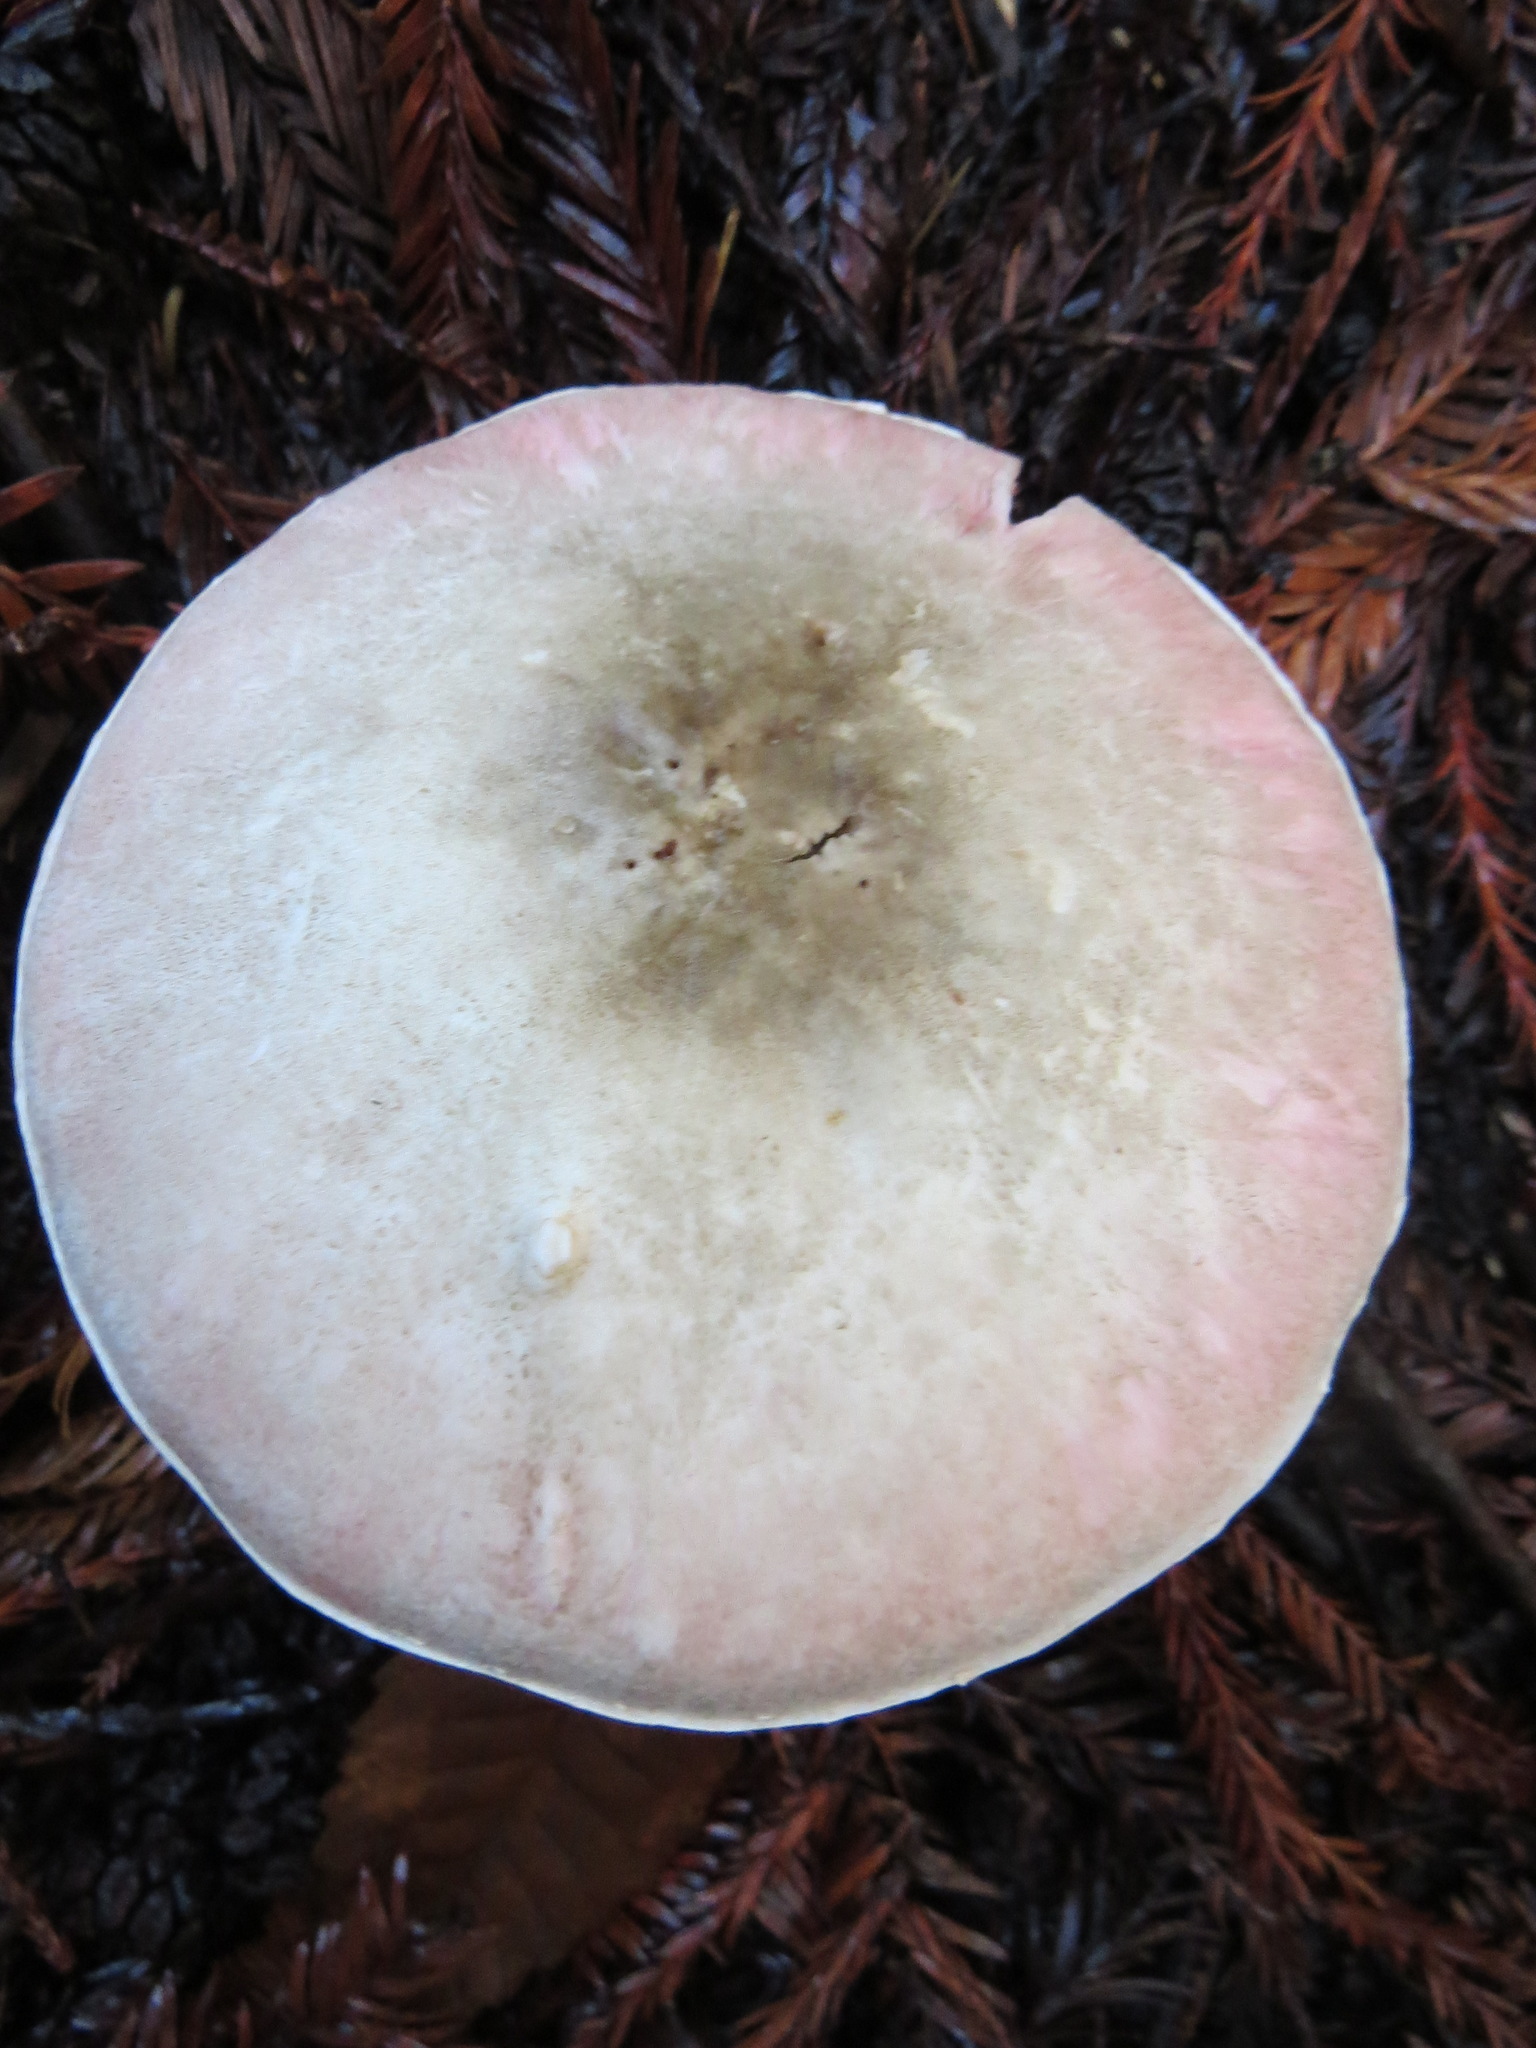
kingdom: Fungi
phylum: Basidiomycota
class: Agaricomycetes
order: Agaricales
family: Agaricaceae
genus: Agaricus
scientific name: Agaricus hondensis
